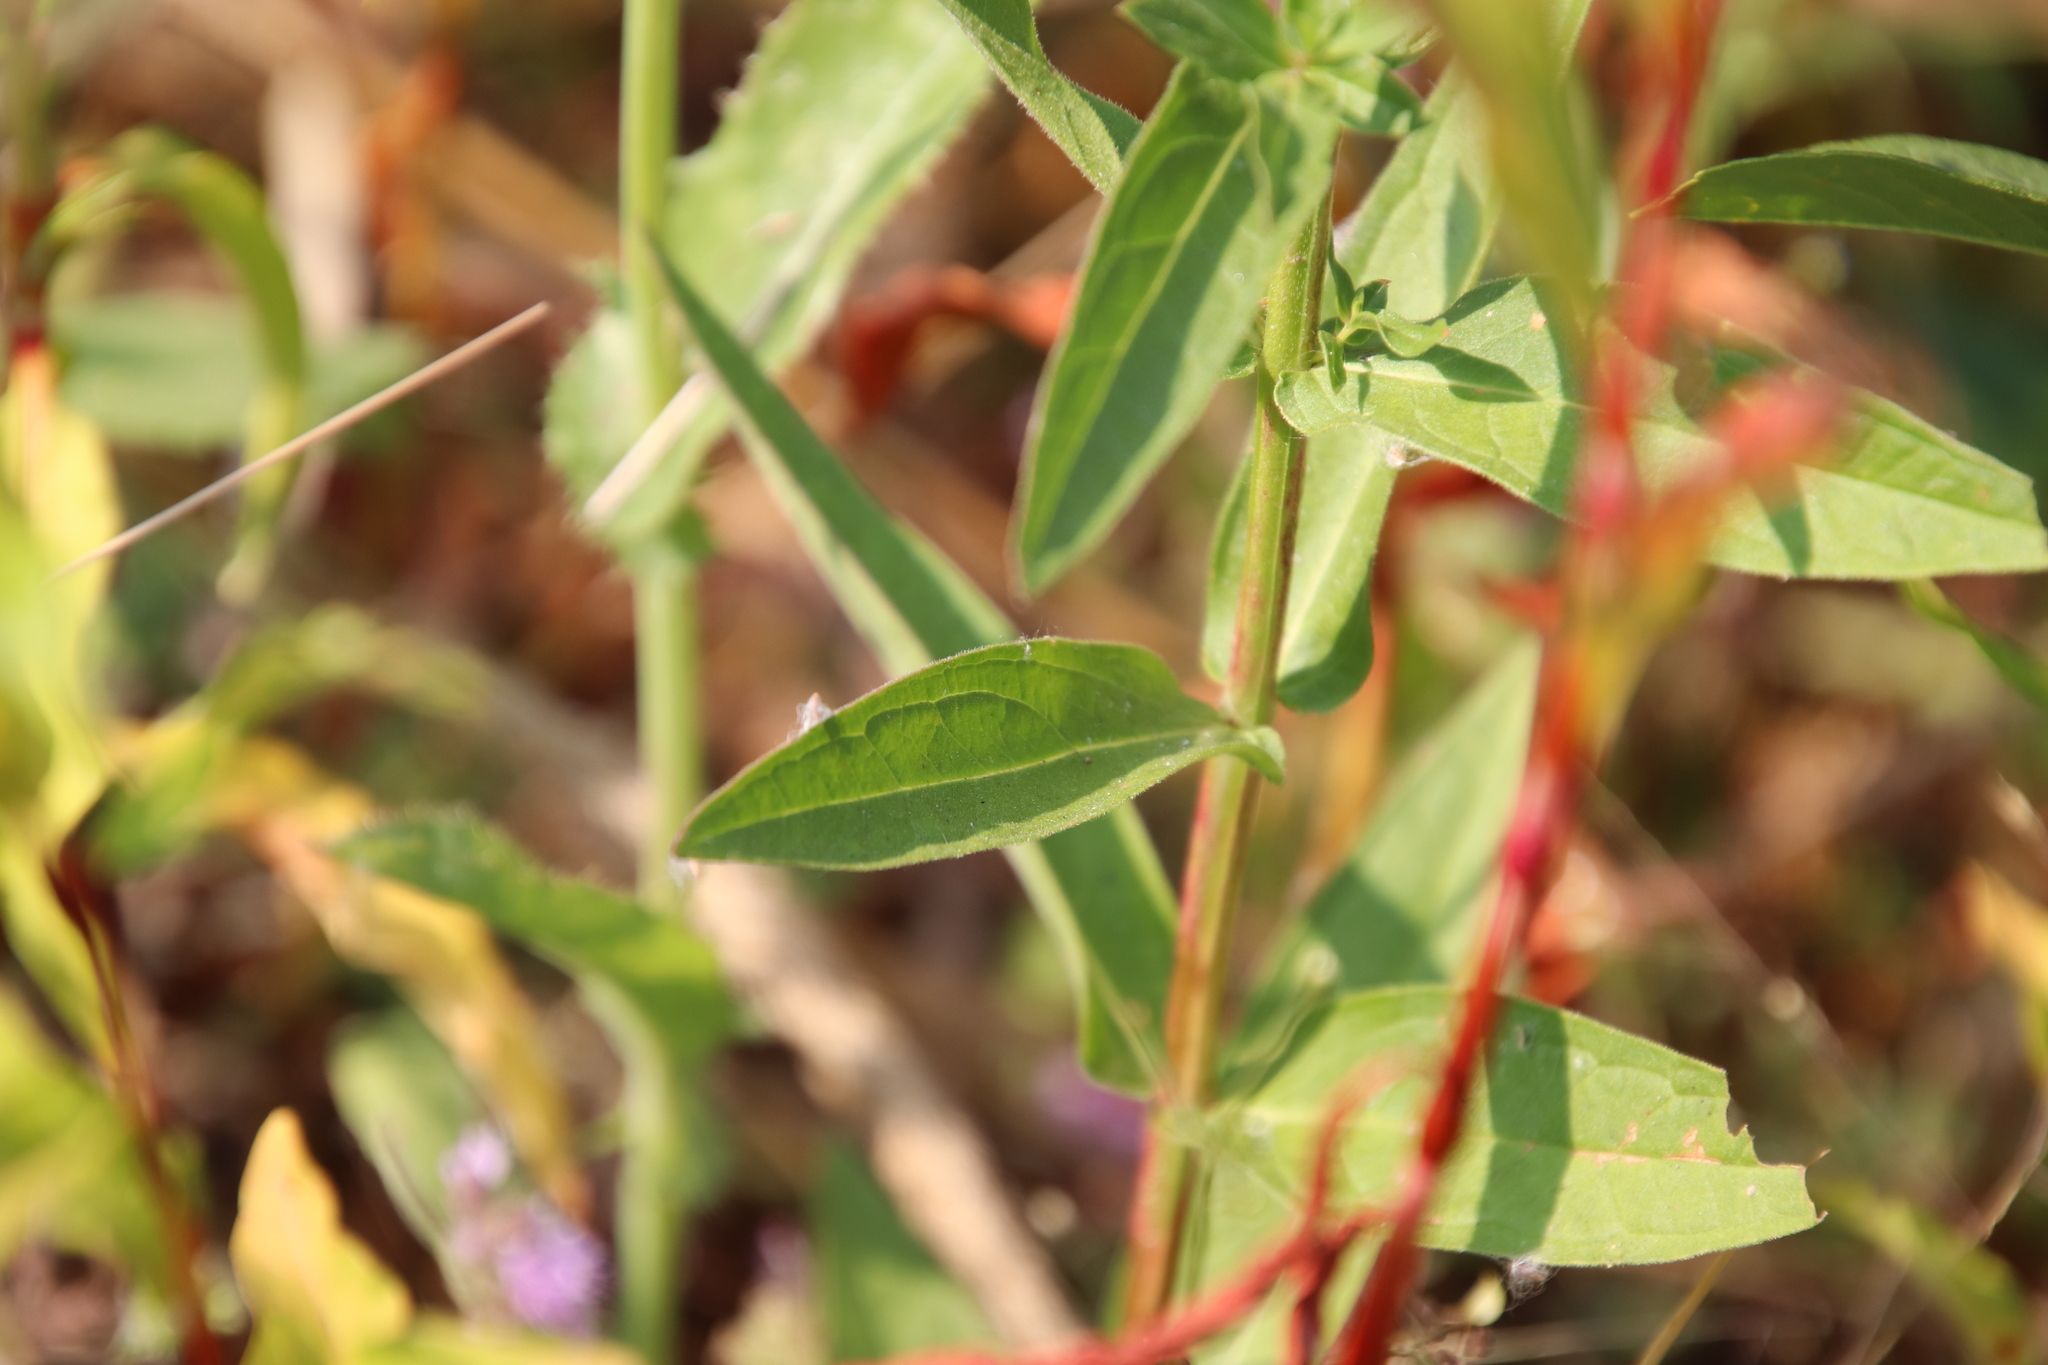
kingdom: Plantae
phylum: Tracheophyta
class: Magnoliopsida
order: Myrtales
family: Lythraceae
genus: Lythrum
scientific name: Lythrum salicaria
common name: Purple loosestrife
